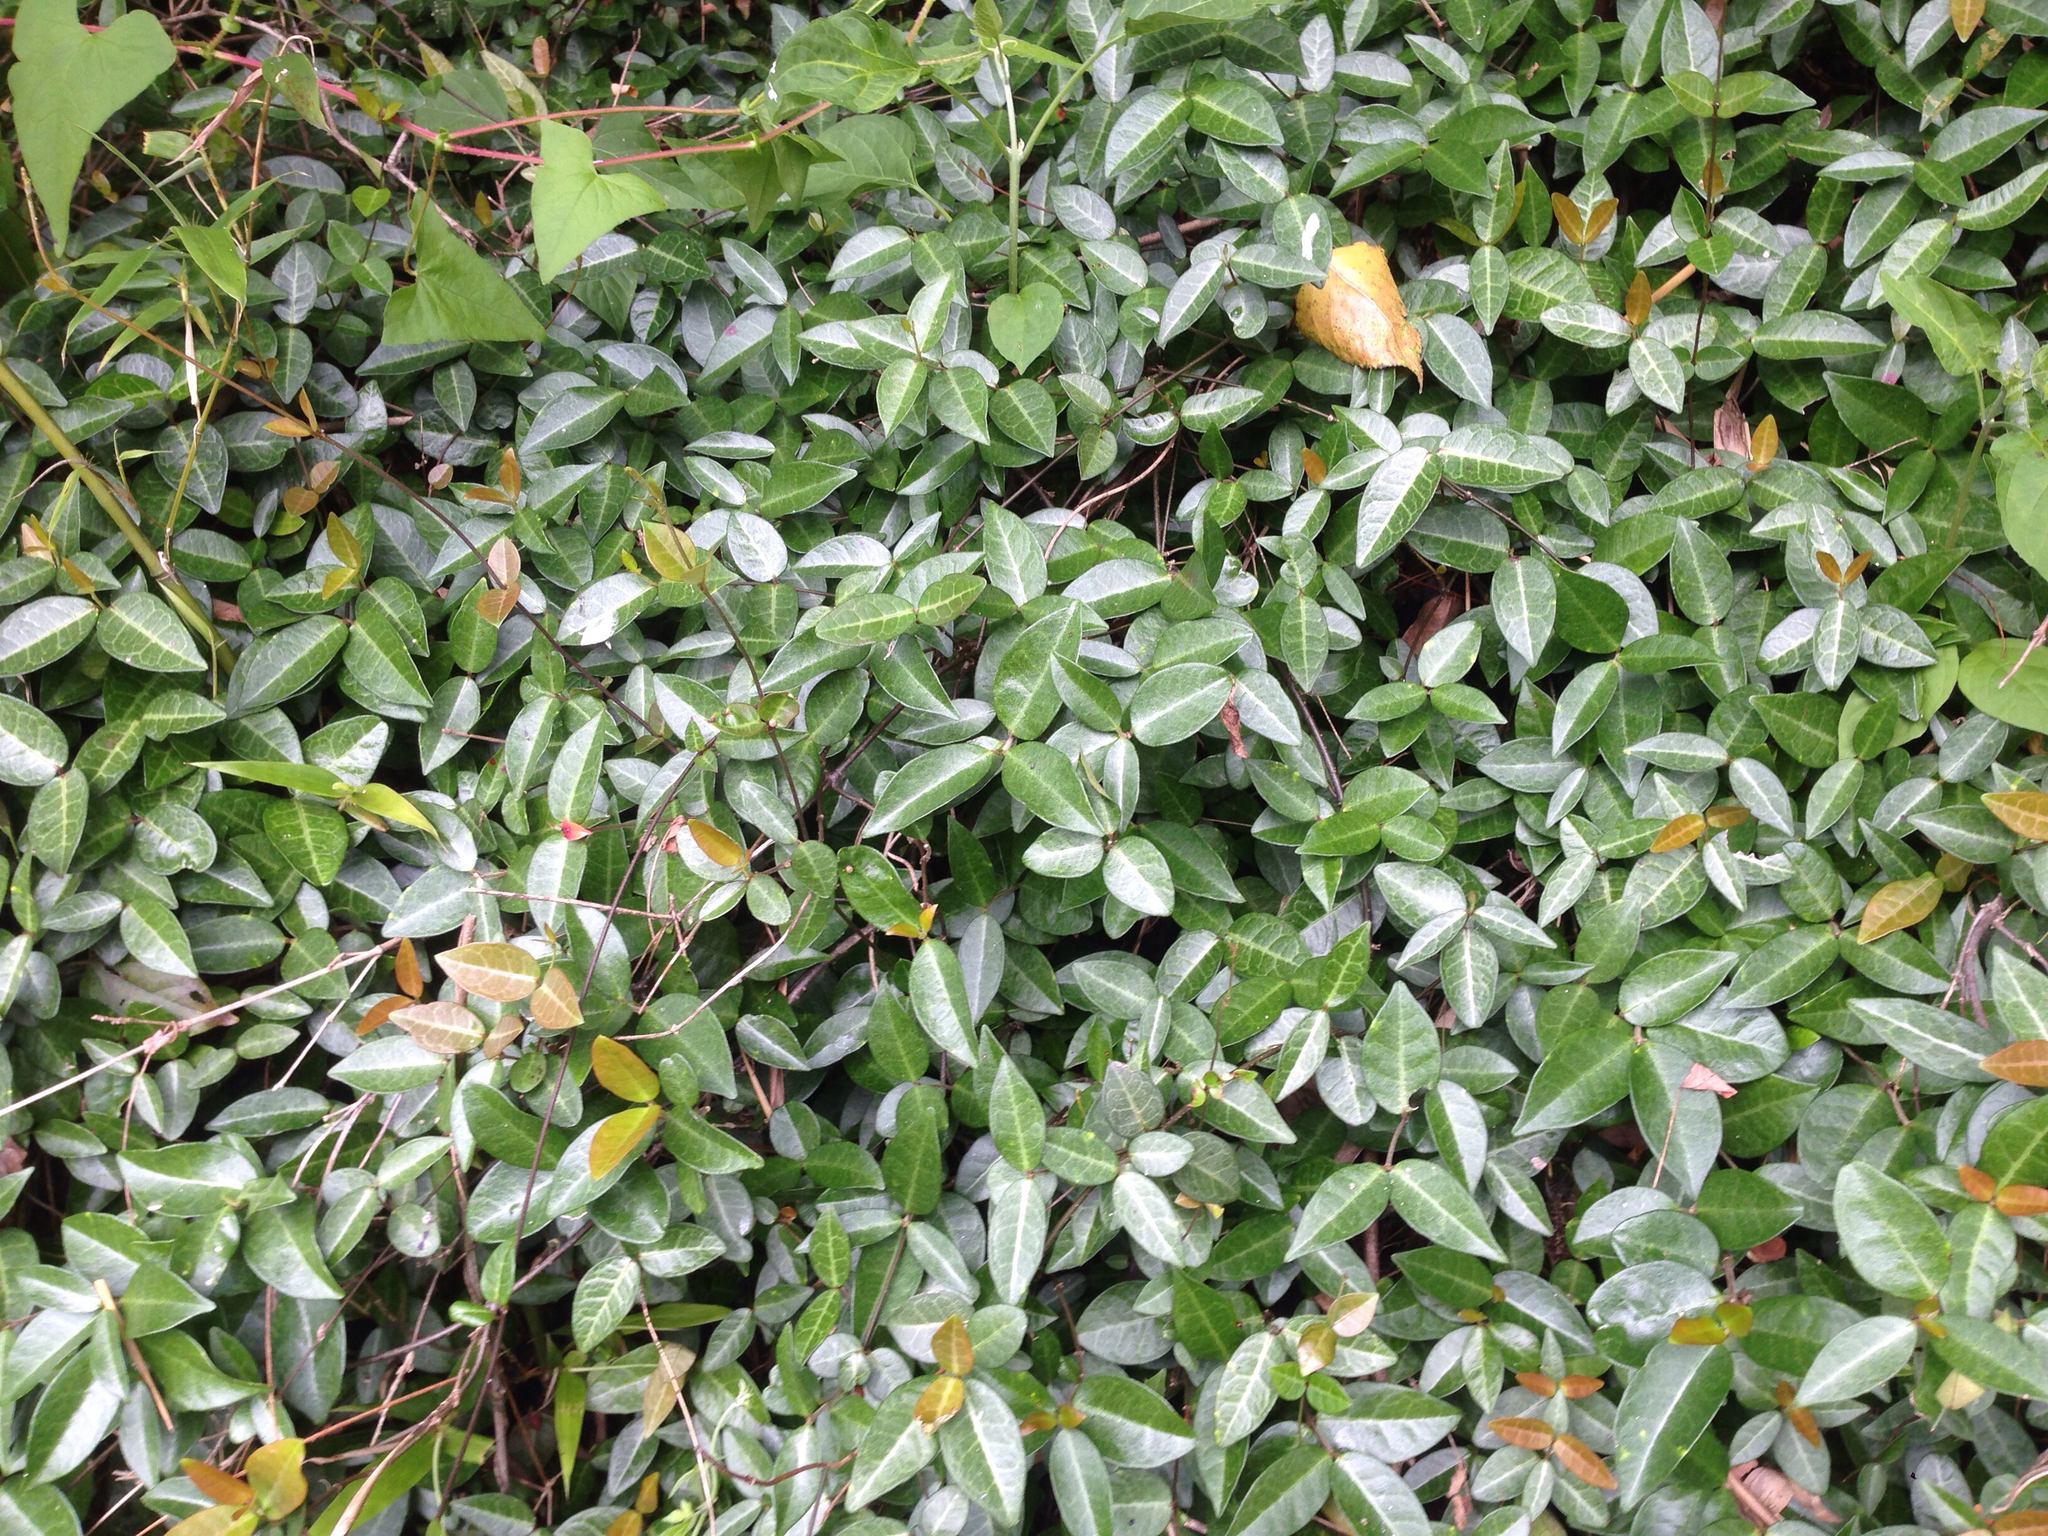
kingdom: Plantae
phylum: Tracheophyta
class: Magnoliopsida
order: Gentianales
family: Apocynaceae
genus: Trachelospermum
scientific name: Trachelospermum jasminoides
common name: Confederate jasmine
